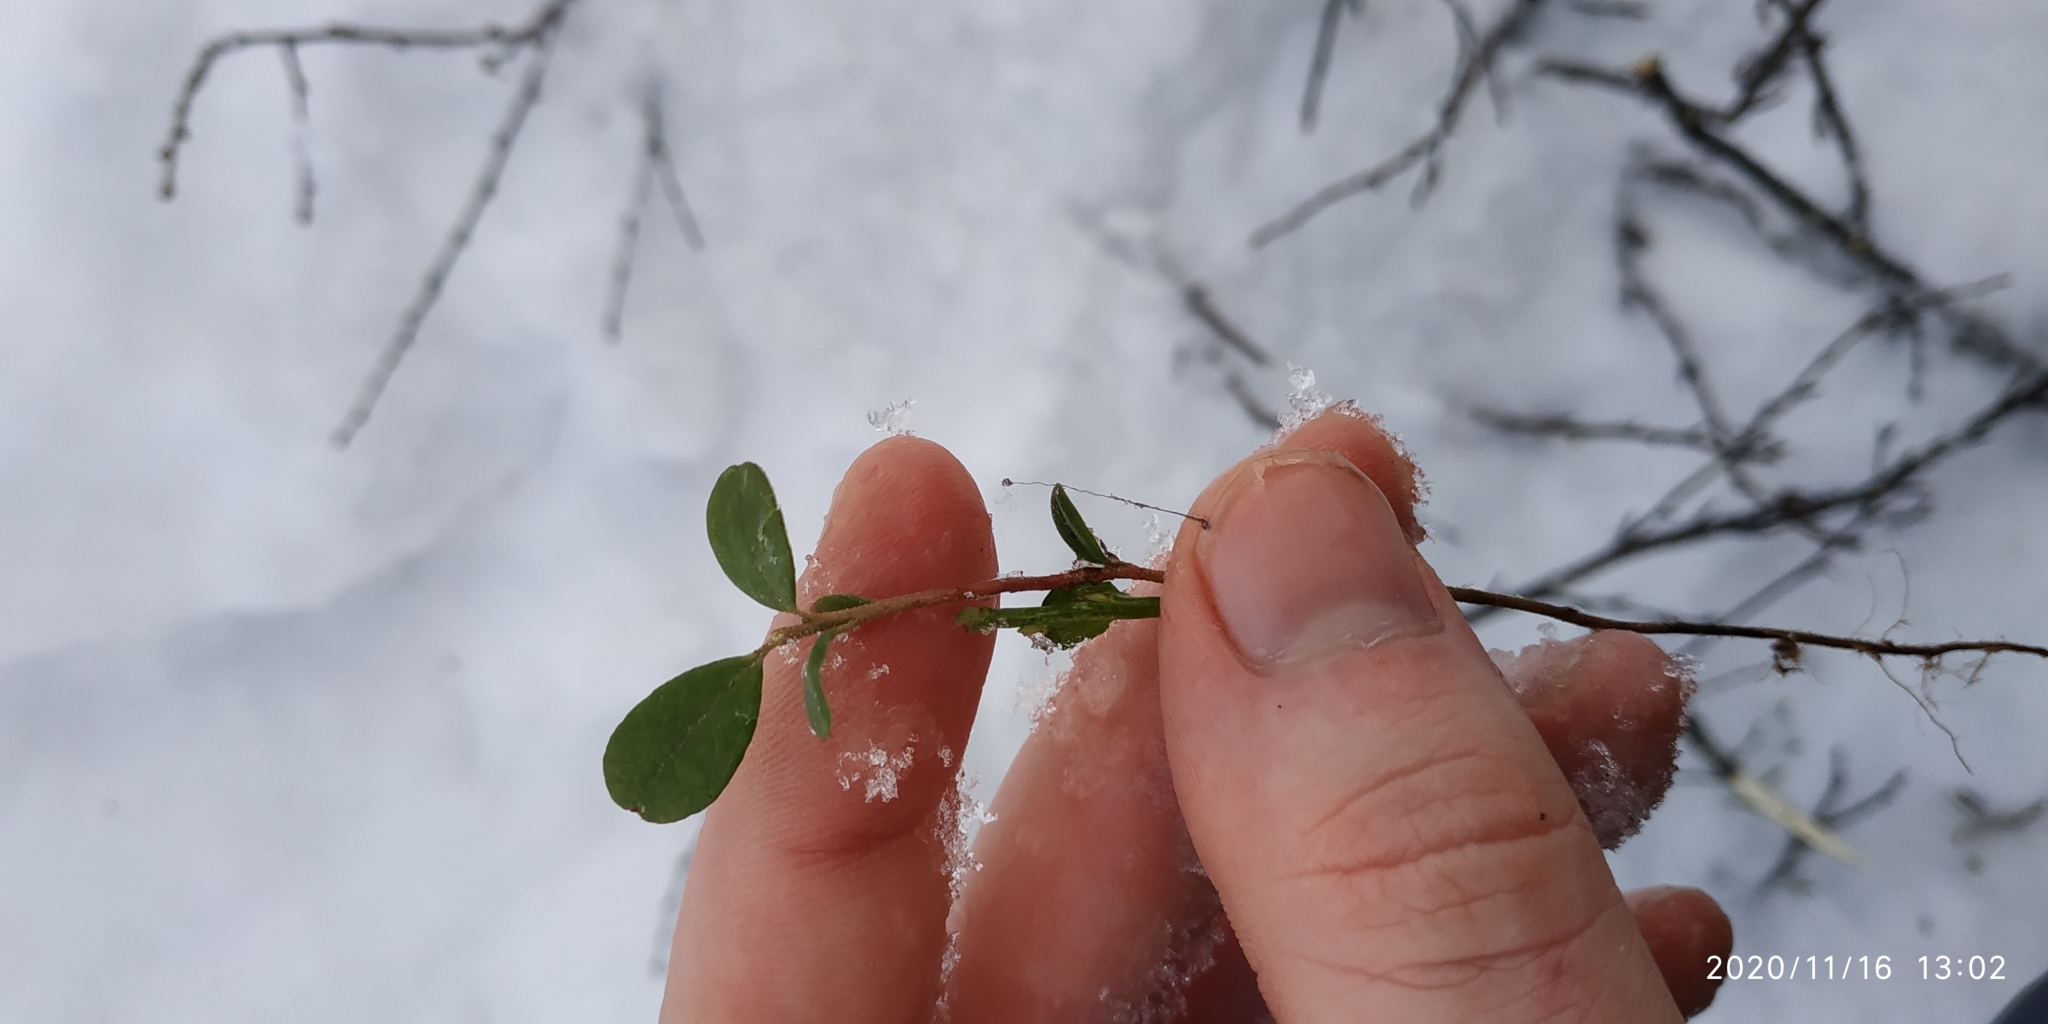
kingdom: Plantae
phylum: Tracheophyta
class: Magnoliopsida
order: Ericales
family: Ericaceae
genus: Vaccinium
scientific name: Vaccinium vitis-idaea
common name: Cowberry
